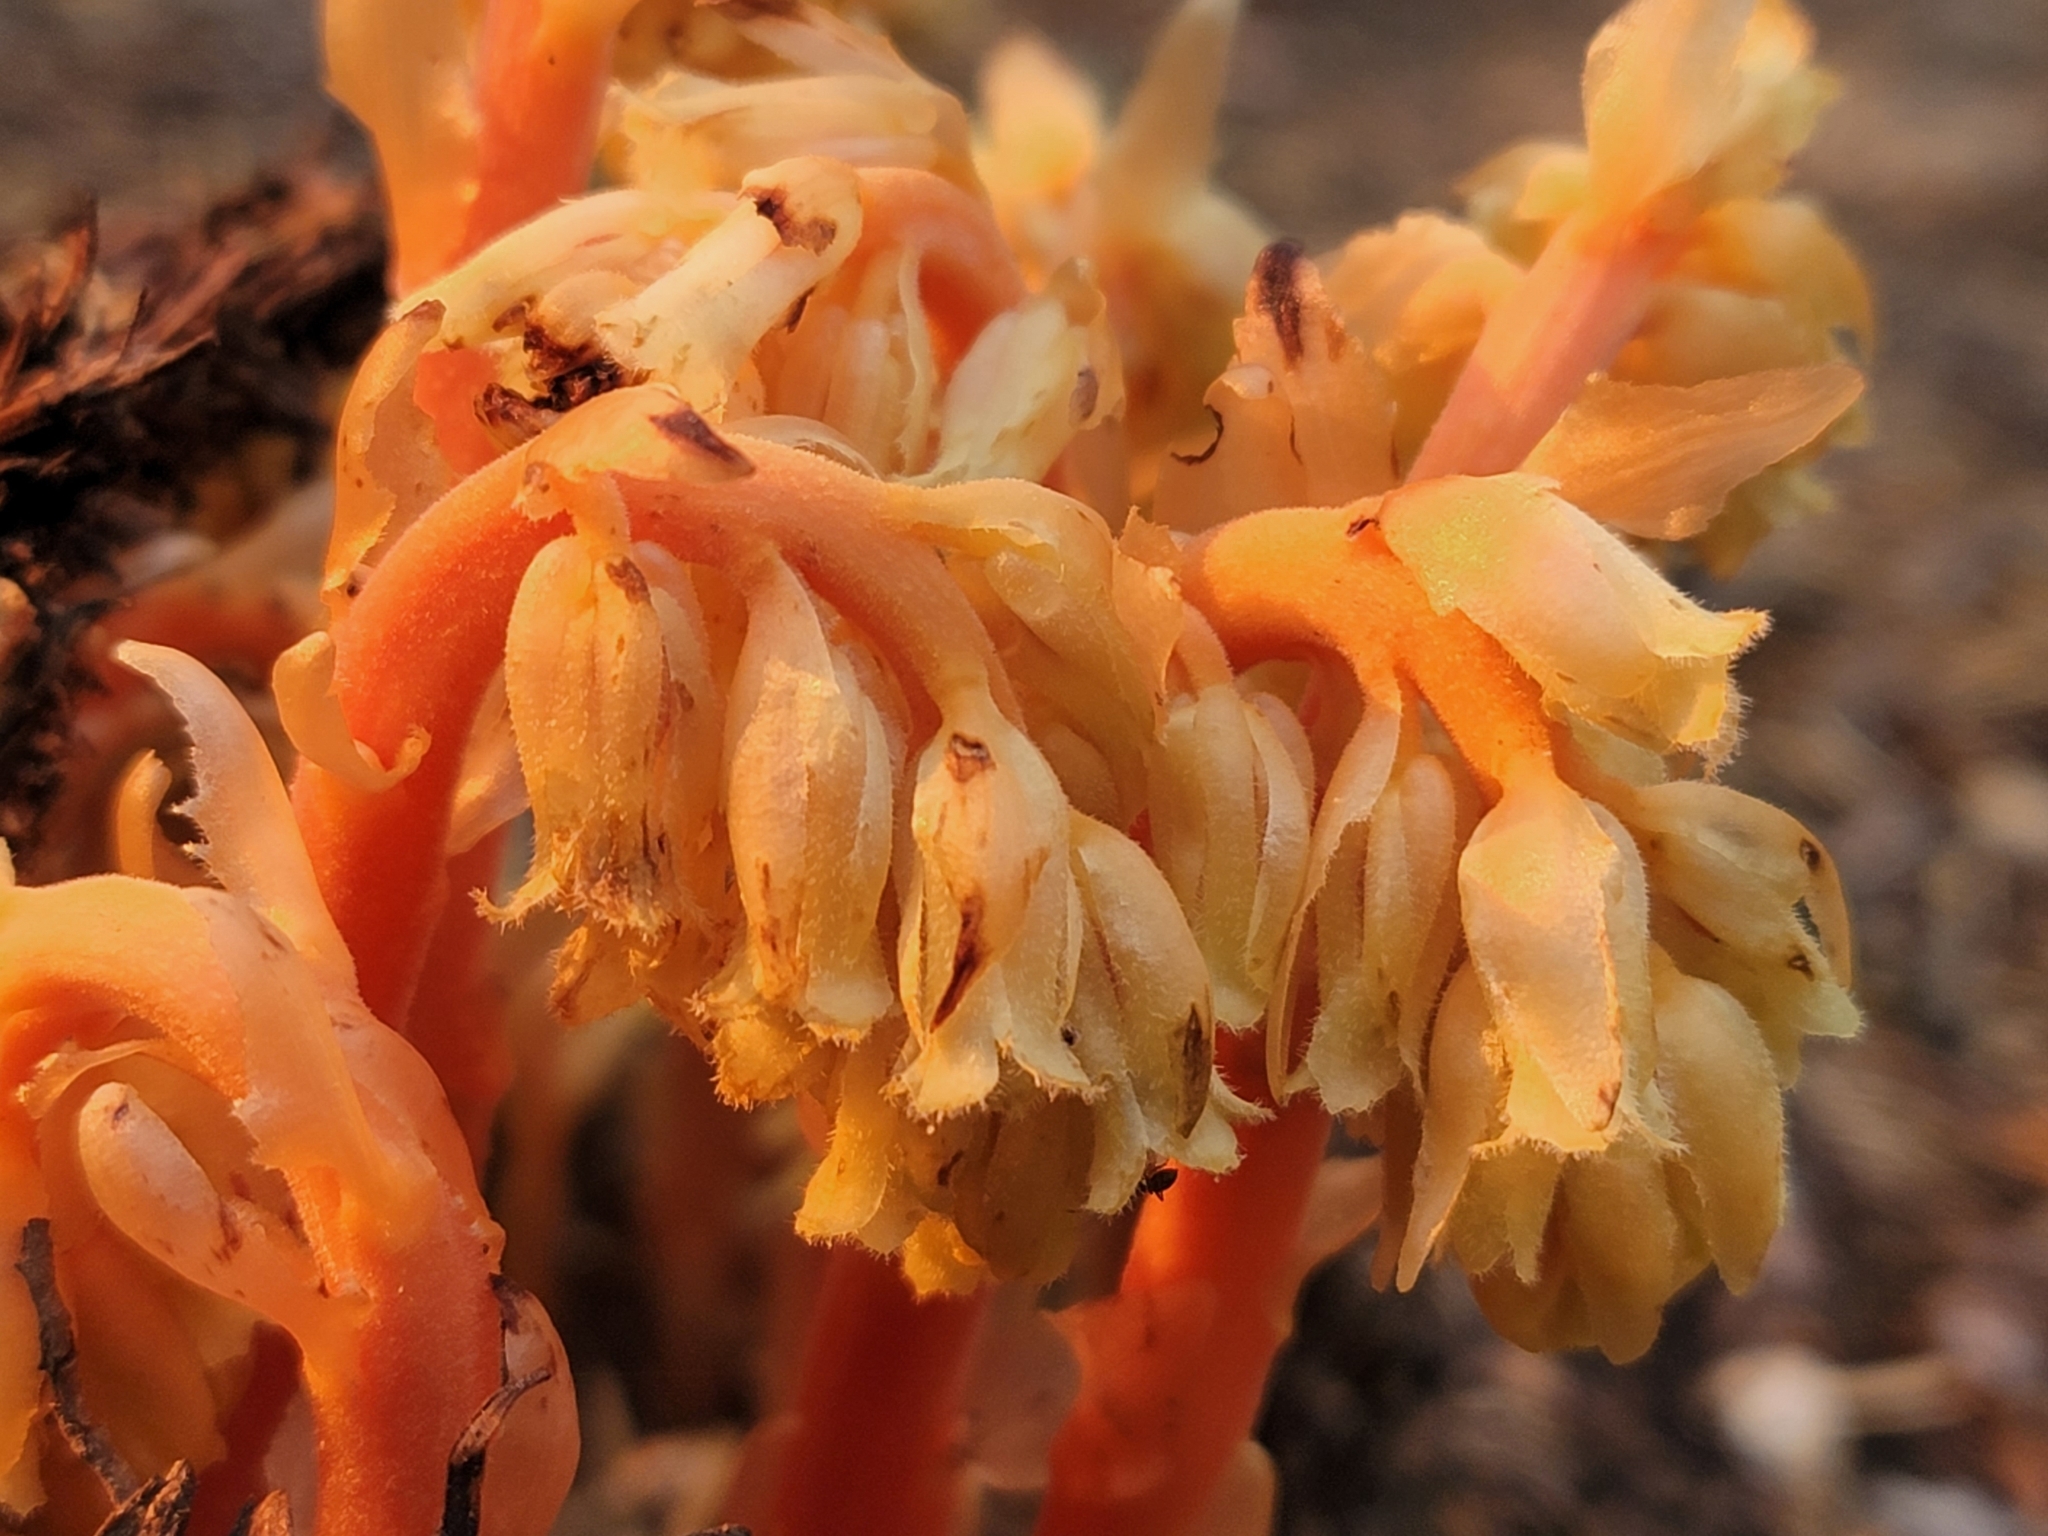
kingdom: Plantae
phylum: Tracheophyta
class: Magnoliopsida
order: Ericales
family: Ericaceae
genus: Hypopitys
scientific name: Hypopitys monotropa
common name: Yellow bird's-nest
